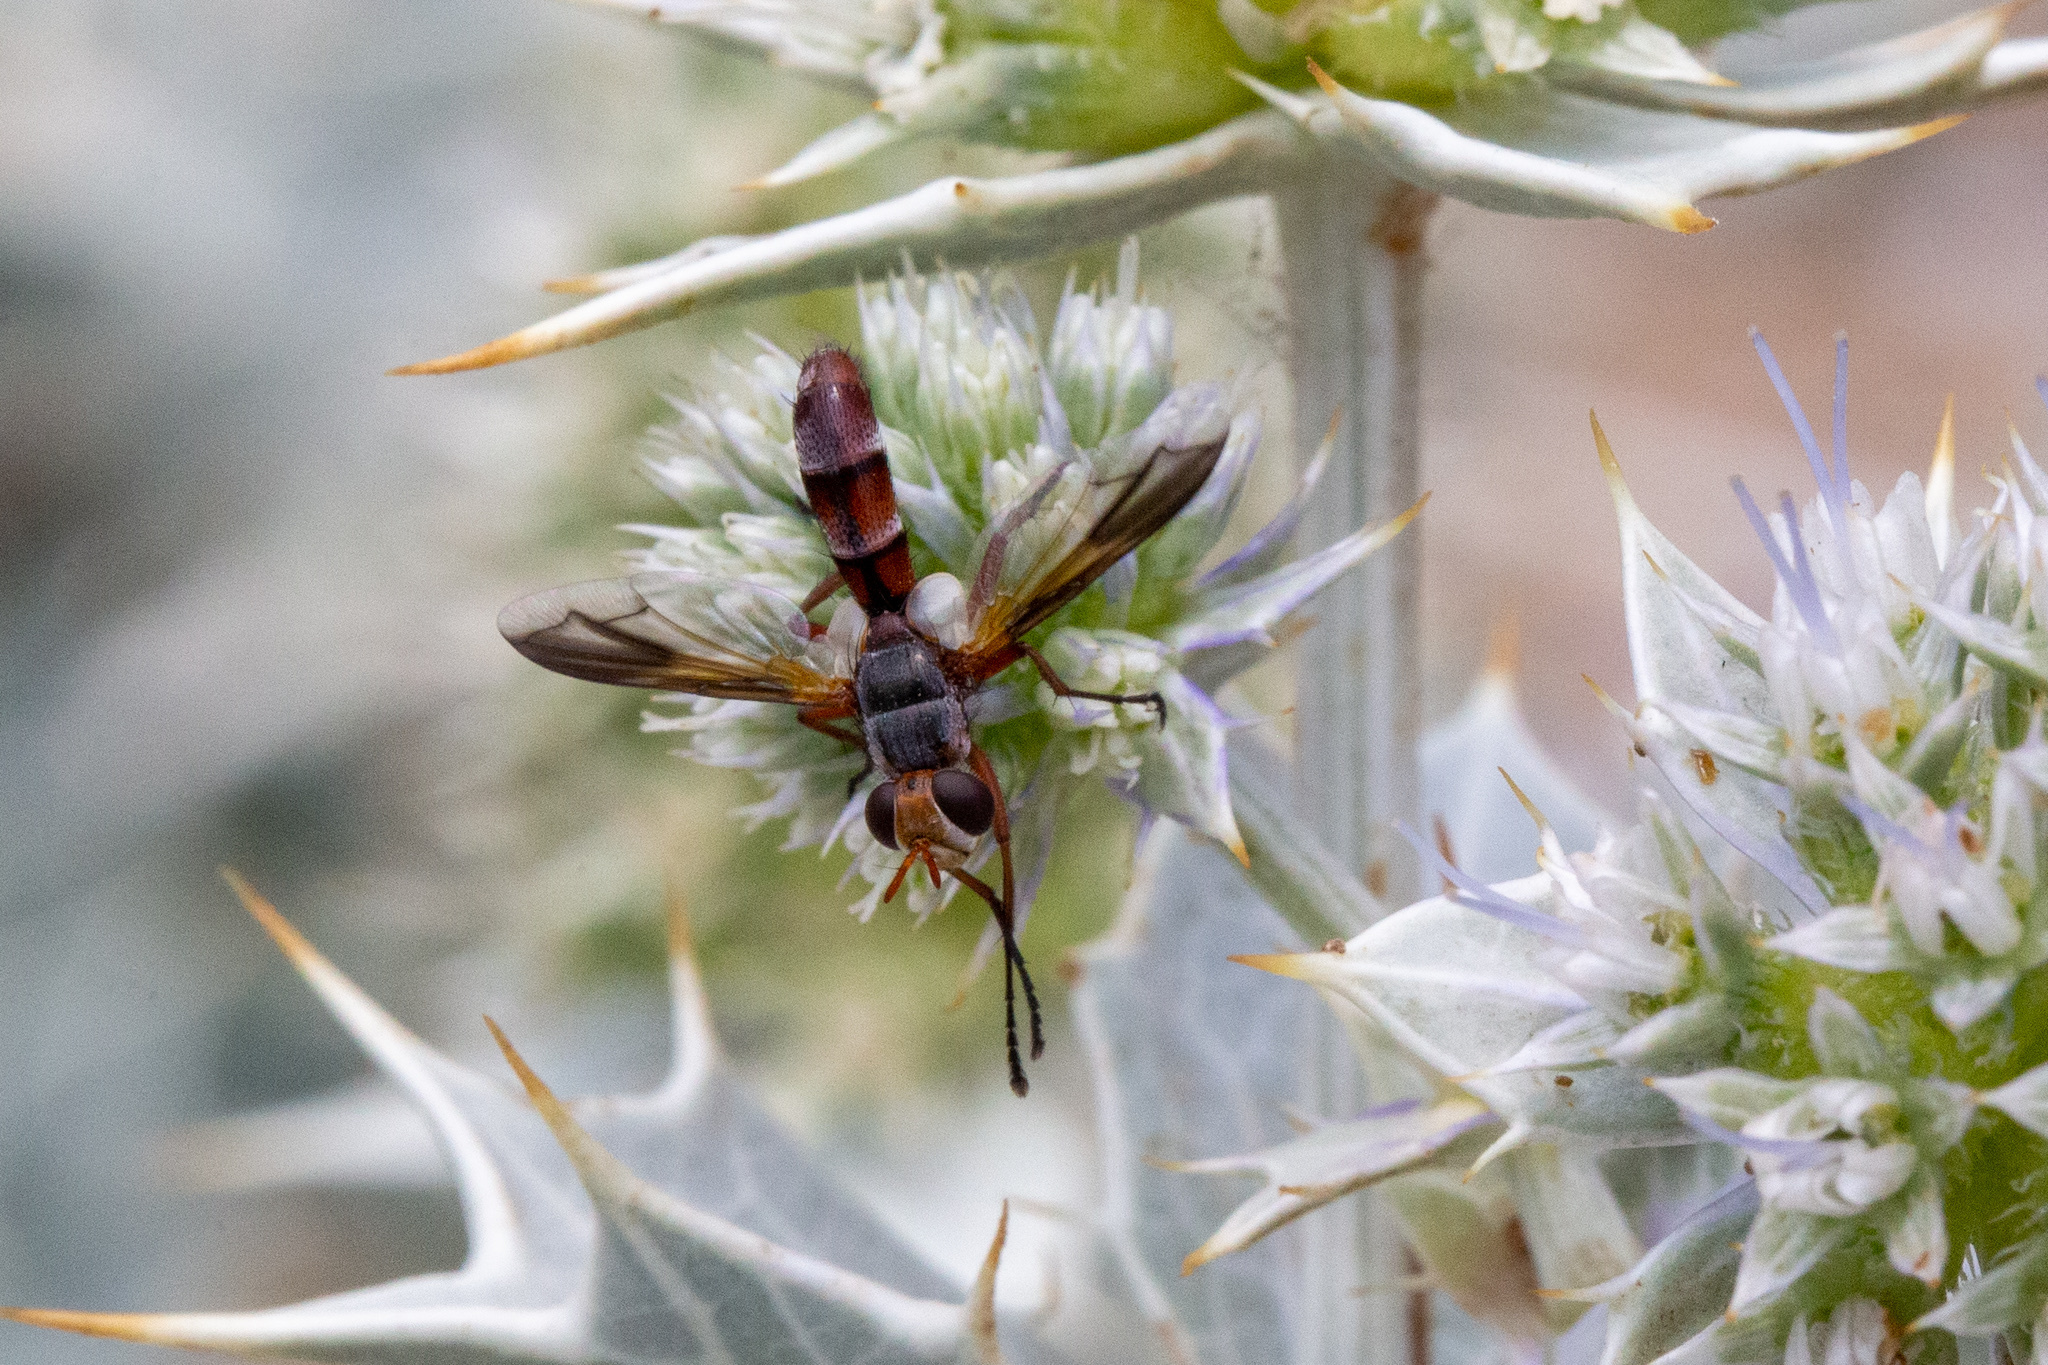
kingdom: Animalia
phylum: Arthropoda
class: Insecta
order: Diptera
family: Tachinidae
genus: Cylindromyia
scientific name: Cylindromyia rubida
